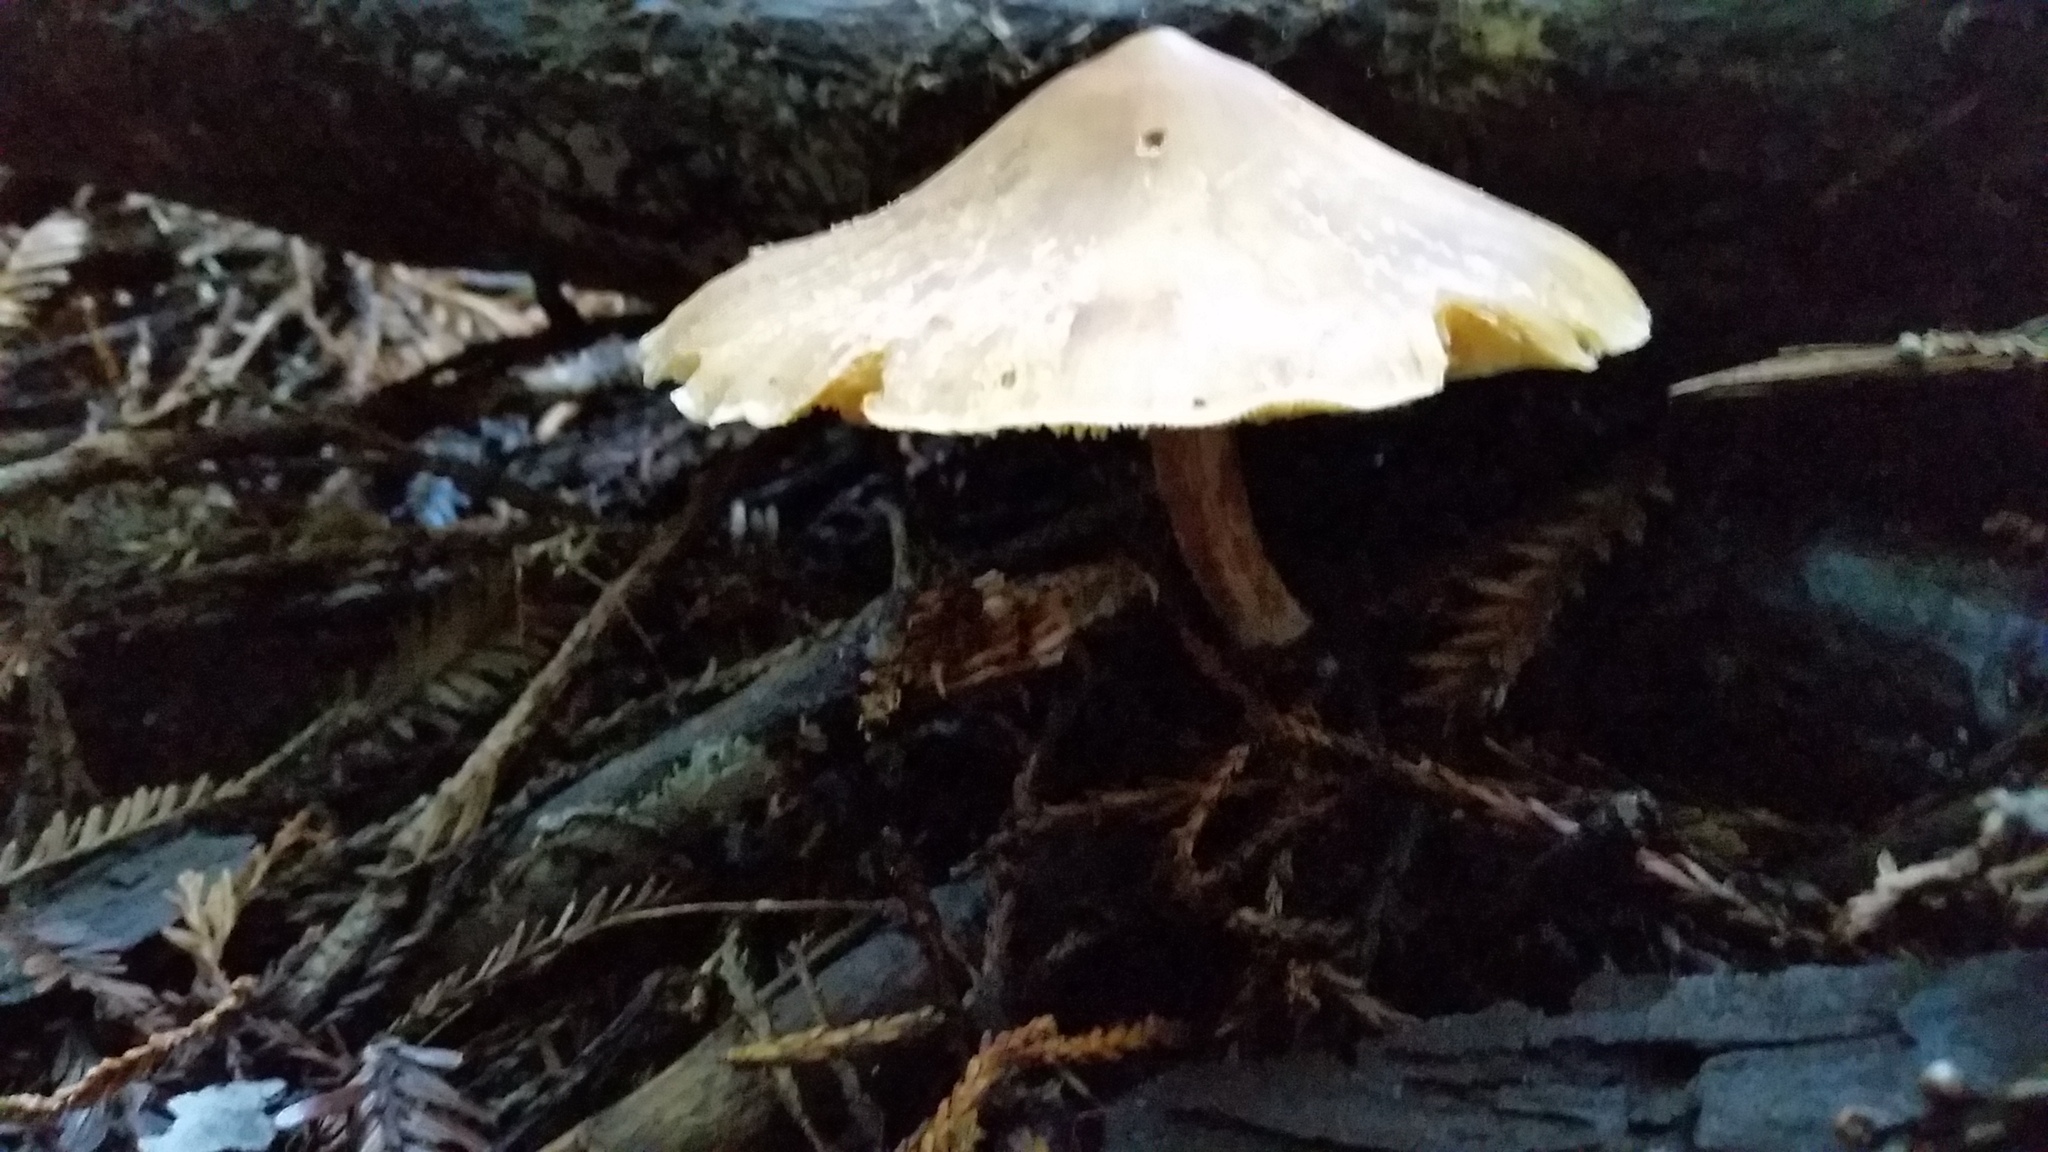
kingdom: Fungi
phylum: Basidiomycota
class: Agaricomycetes
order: Agaricales
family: Tricholomataceae
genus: Caulorhiza
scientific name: Caulorhiza umbonata
